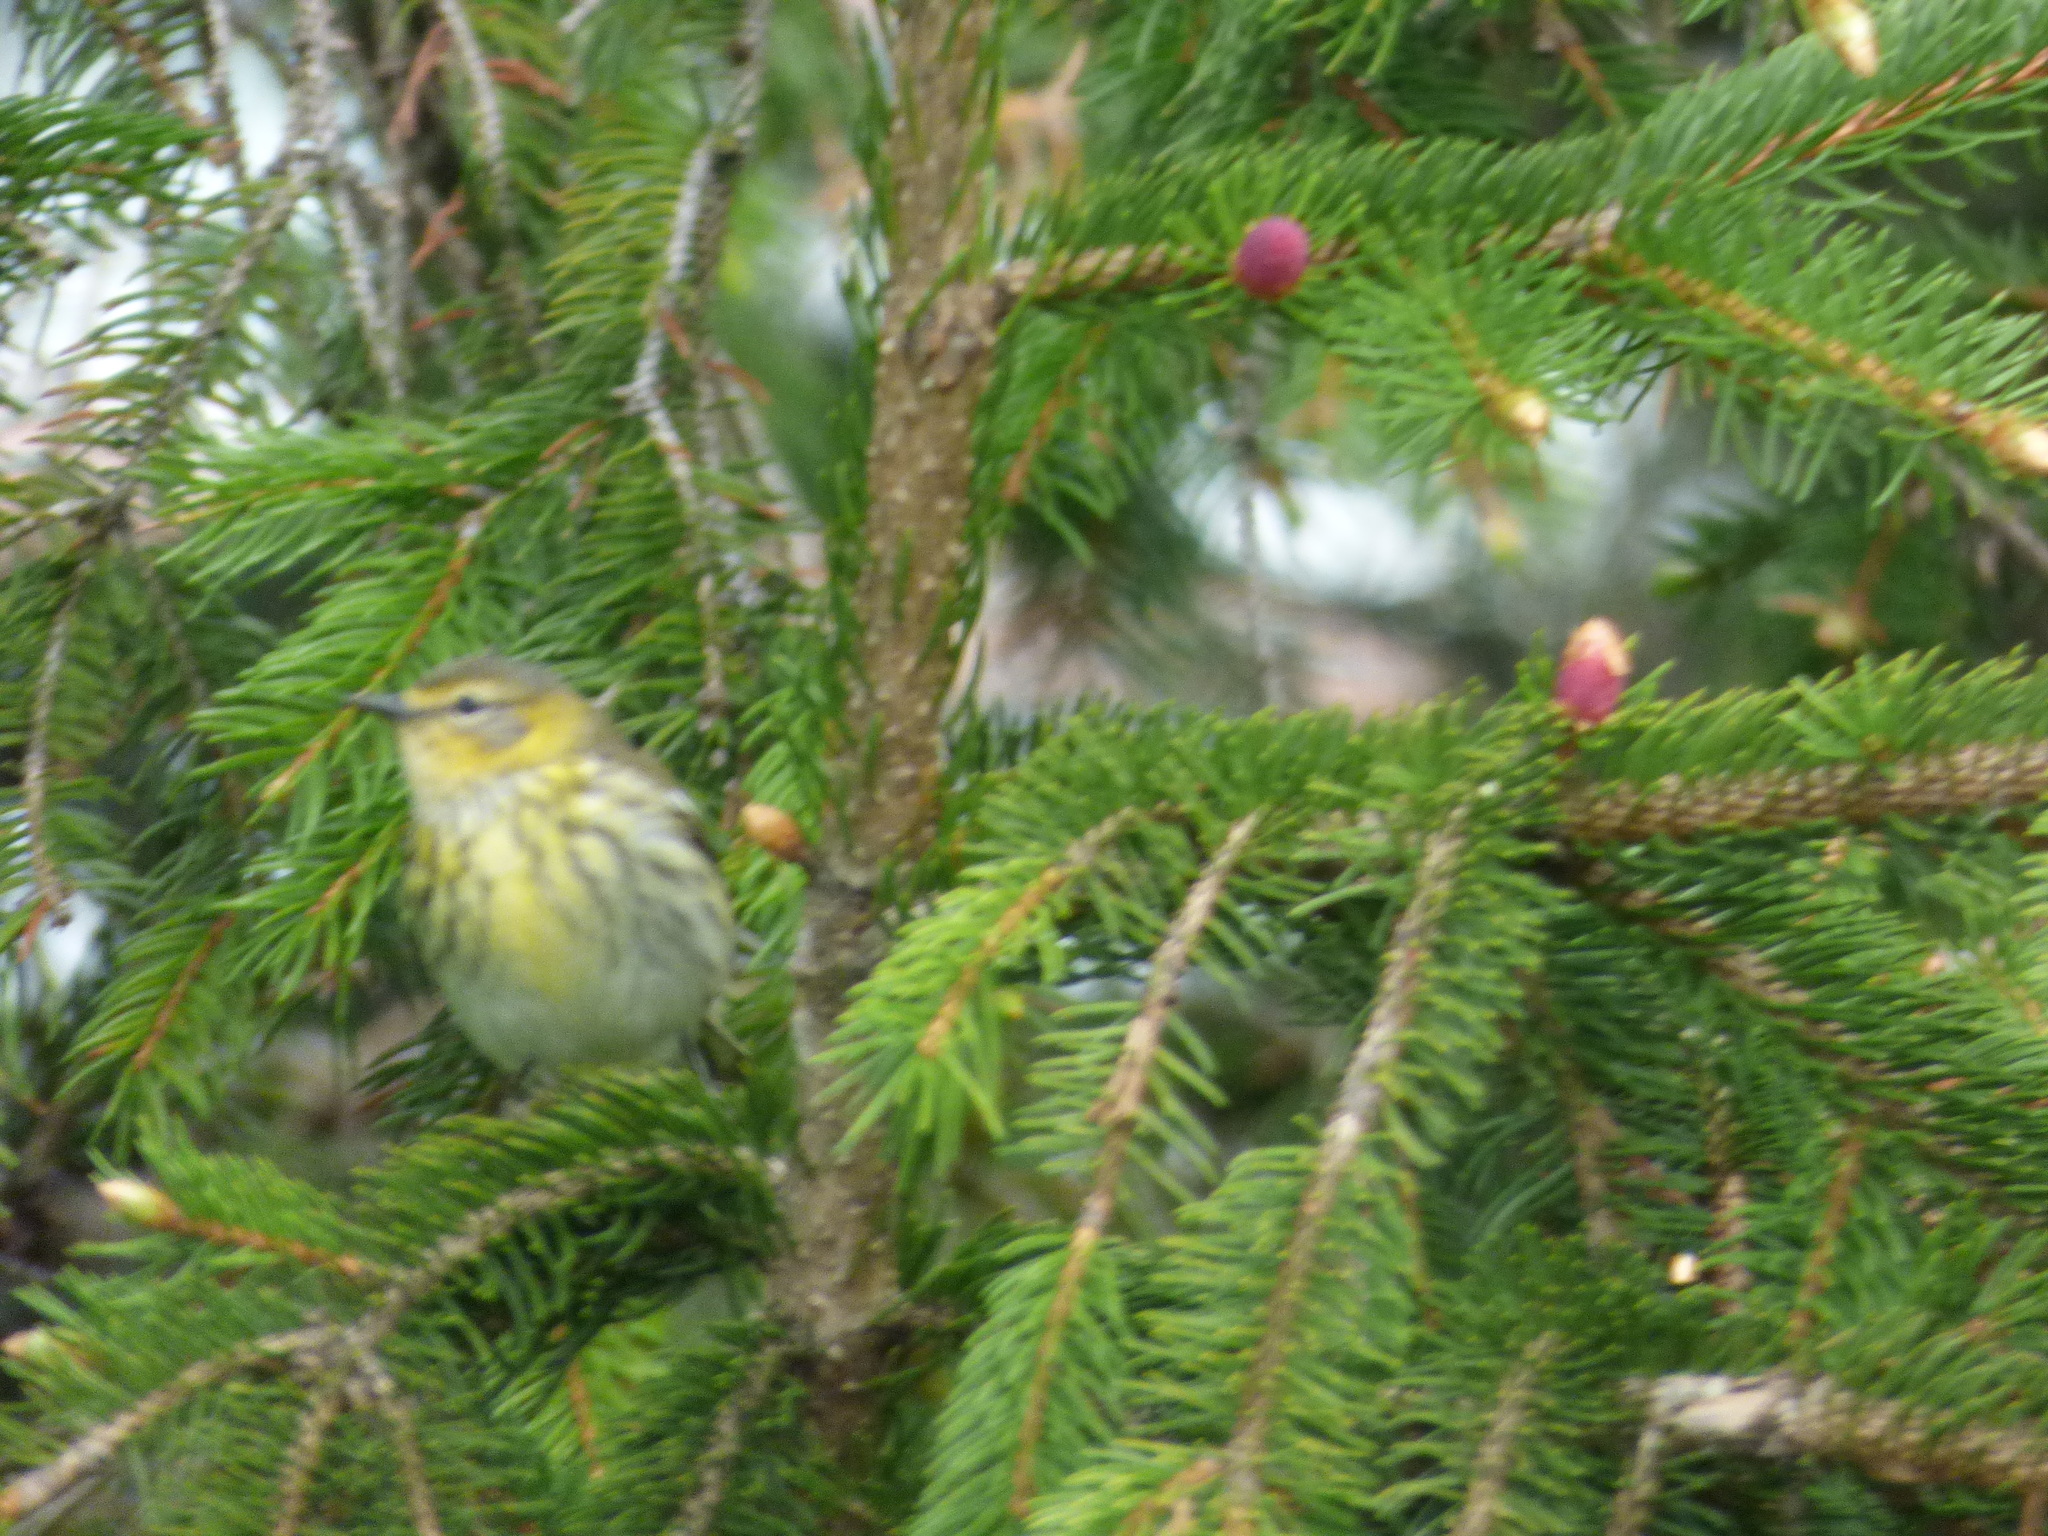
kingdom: Animalia
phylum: Chordata
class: Aves
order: Passeriformes
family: Parulidae
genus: Setophaga
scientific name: Setophaga tigrina
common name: Cape may warbler
